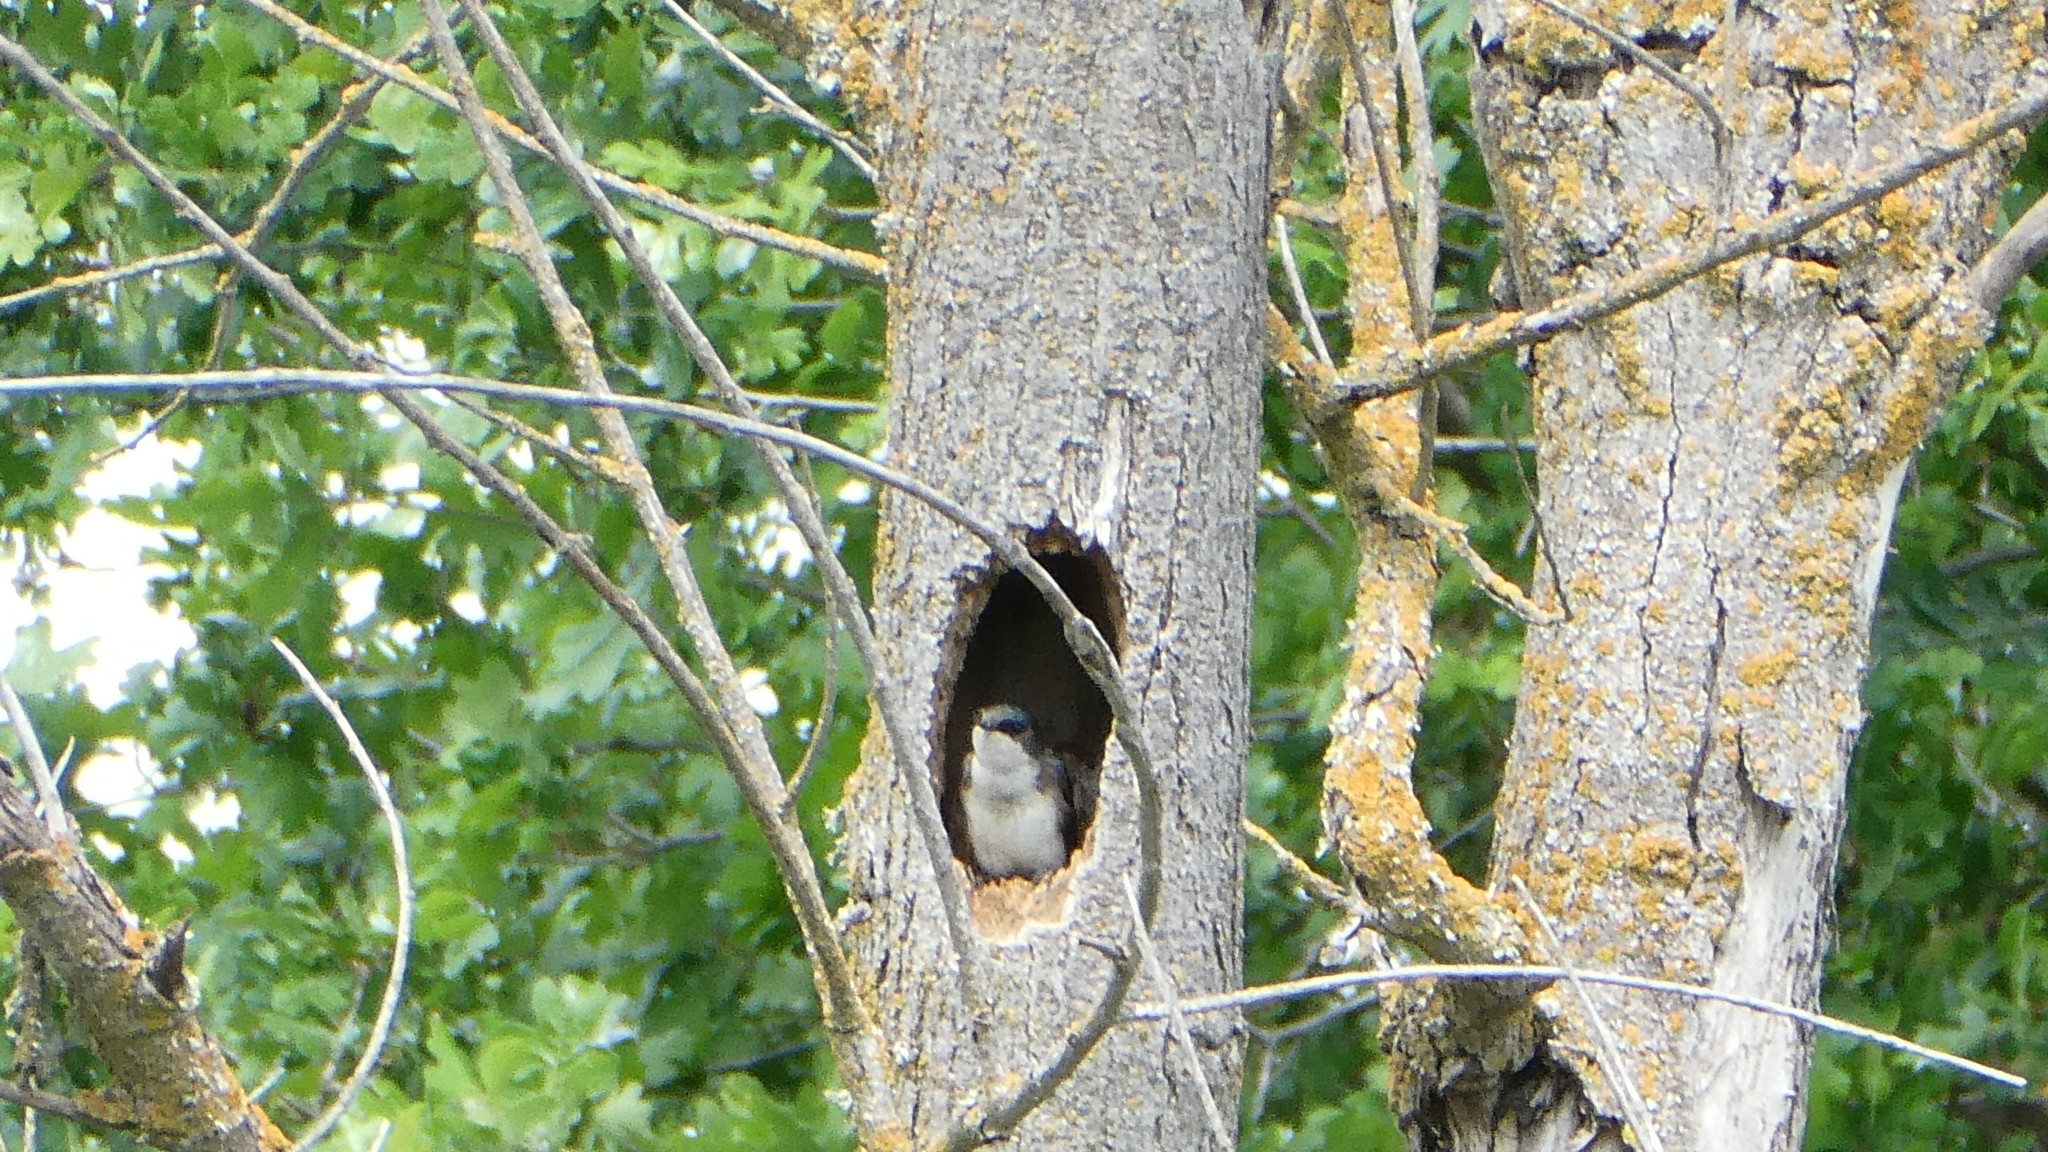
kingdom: Animalia
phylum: Chordata
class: Aves
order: Passeriformes
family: Hirundinidae
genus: Tachycineta
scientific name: Tachycineta bicolor
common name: Tree swallow
